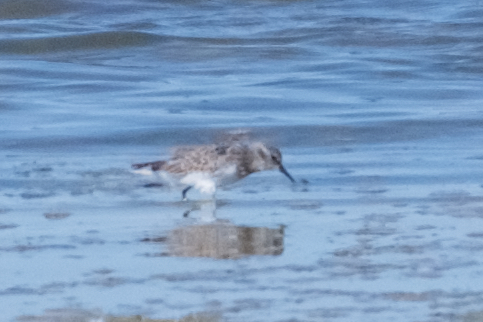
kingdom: Animalia
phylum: Chordata
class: Aves
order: Charadriiformes
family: Scolopacidae
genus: Calidris
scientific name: Calidris minutilla
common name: Least sandpiper
